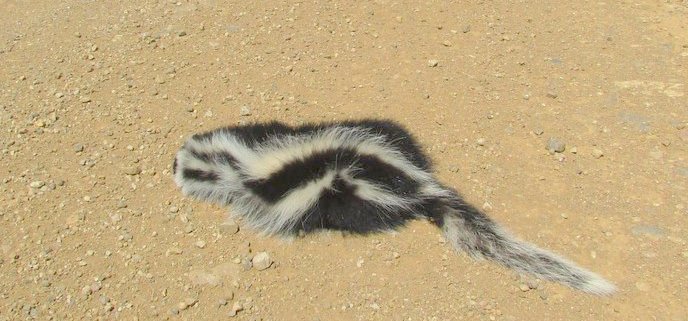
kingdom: Animalia
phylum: Chordata
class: Mammalia
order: Carnivora
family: Mustelidae
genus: Ictonyx
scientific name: Ictonyx striatus
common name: Striped polecat
